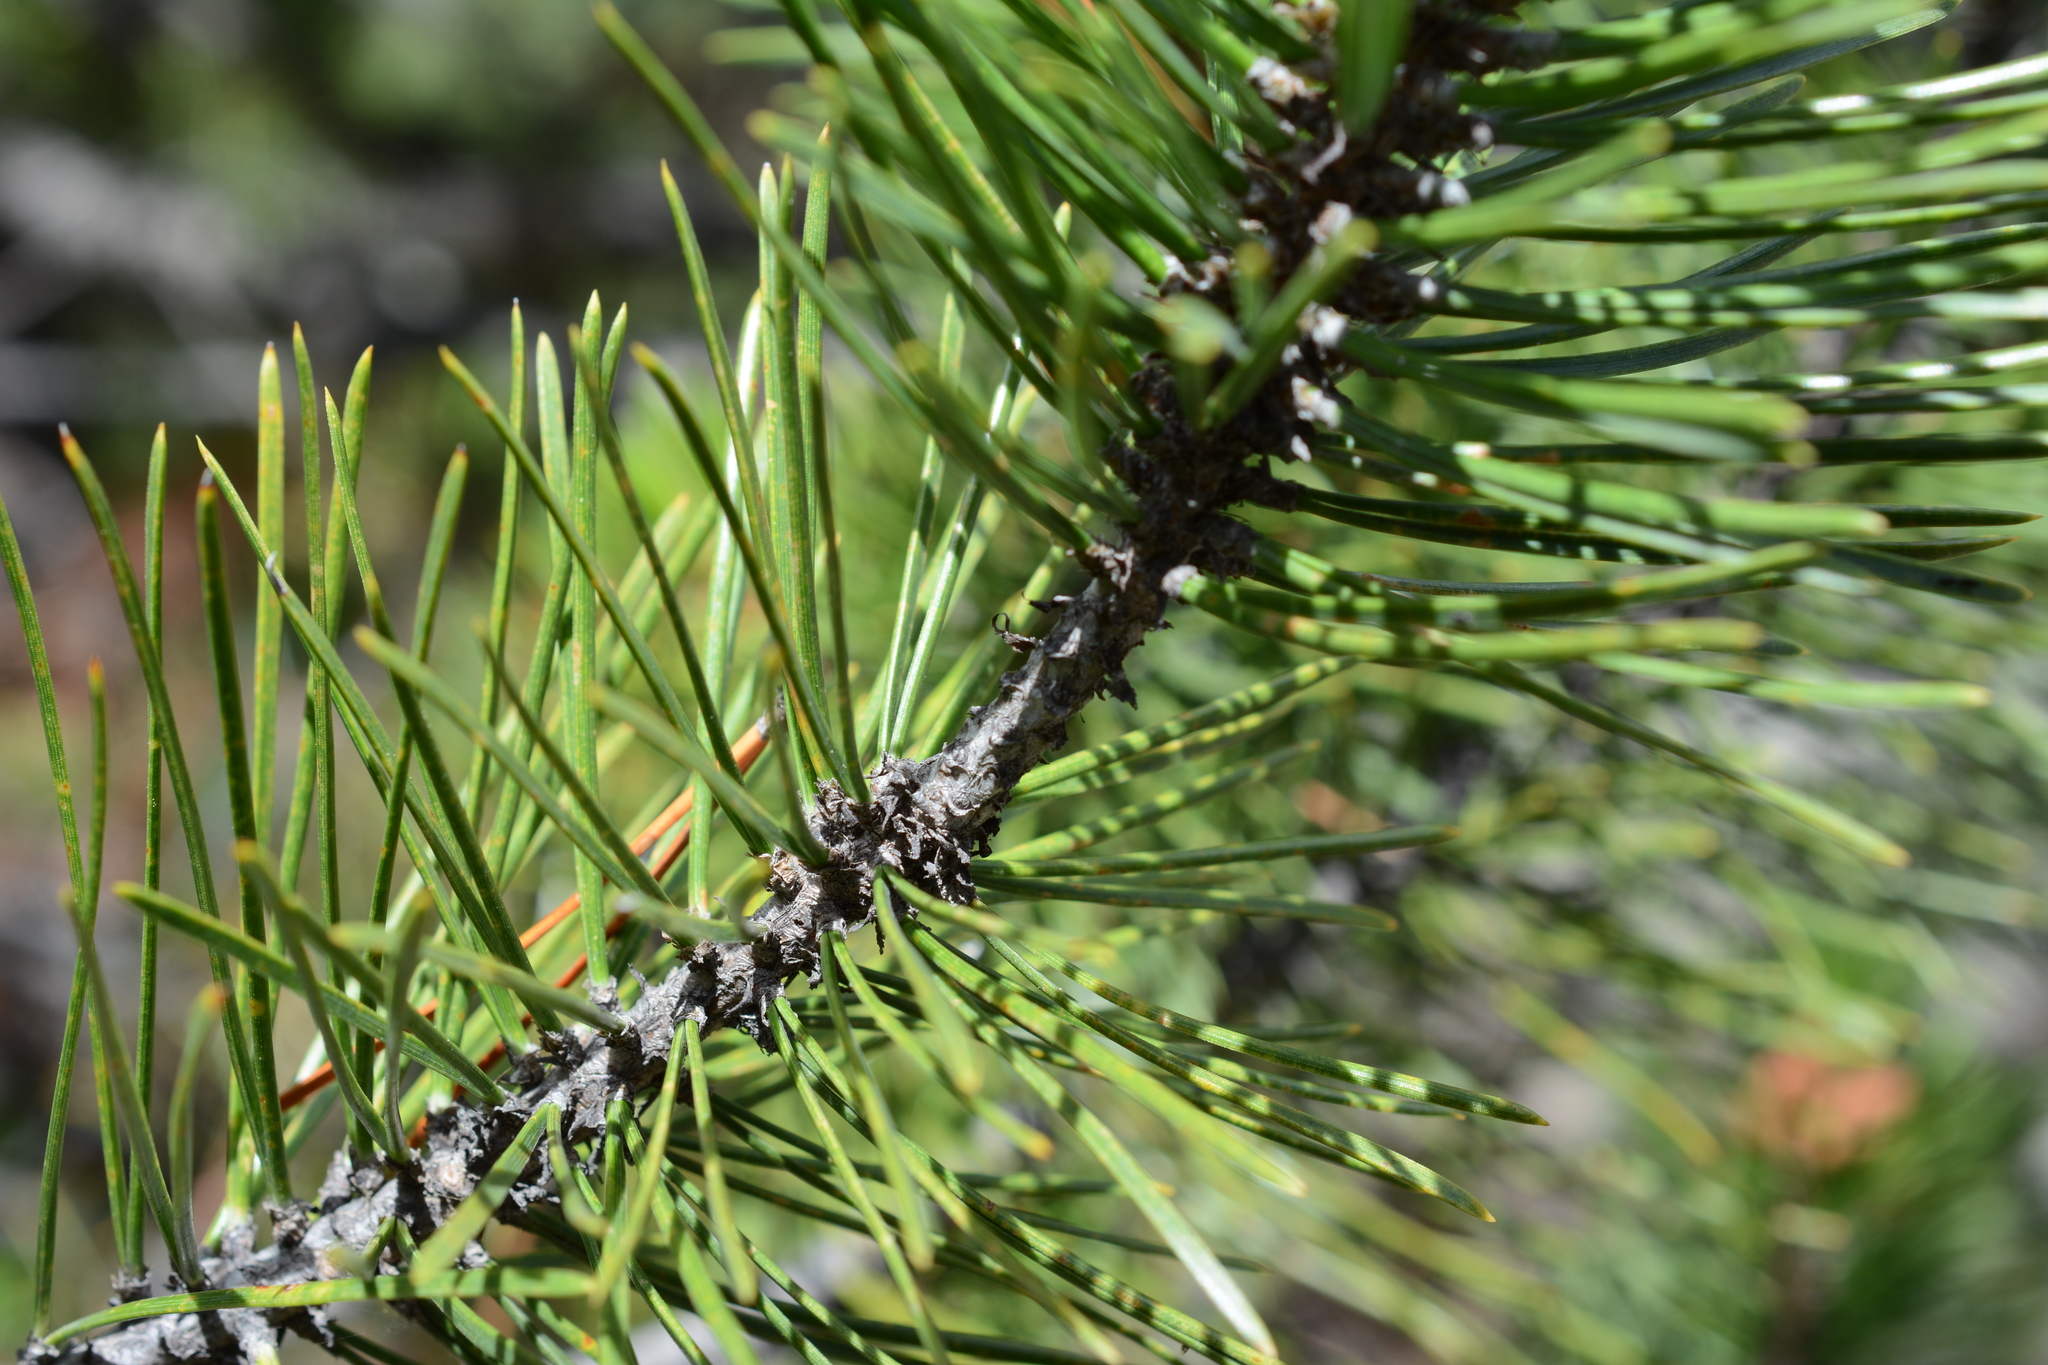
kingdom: Plantae
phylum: Tracheophyta
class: Pinopsida
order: Pinales
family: Pinaceae
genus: Pinus
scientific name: Pinus contorta
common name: Lodgepole pine
